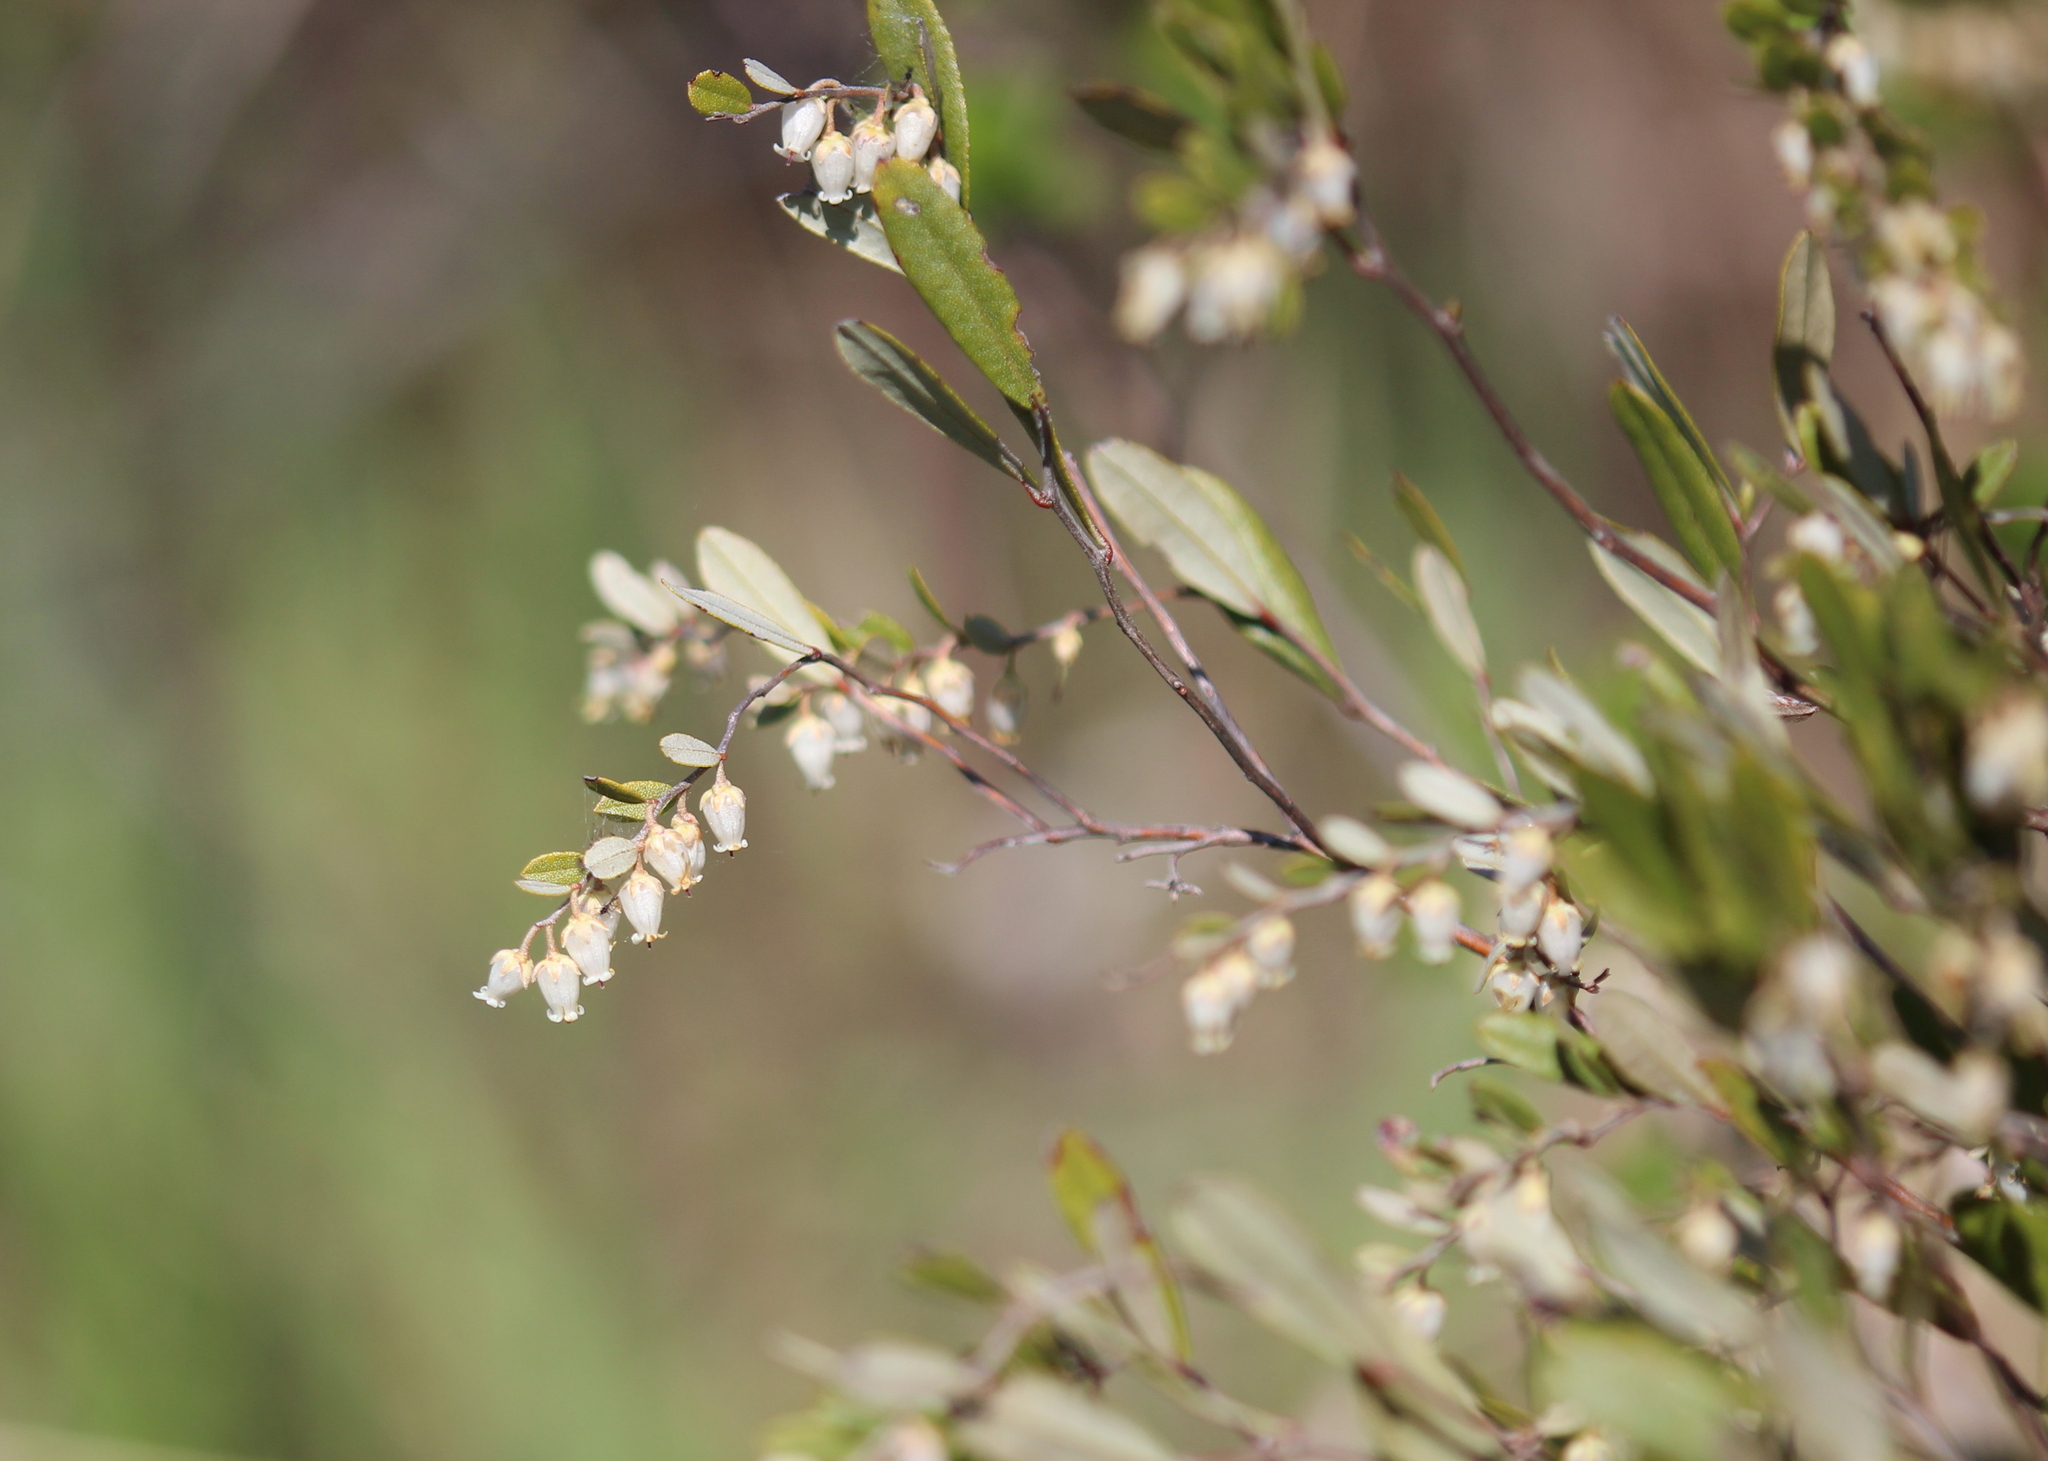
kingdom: Plantae
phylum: Tracheophyta
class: Magnoliopsida
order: Ericales
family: Ericaceae
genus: Chamaedaphne
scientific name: Chamaedaphne calyculata
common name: Leatherleaf
